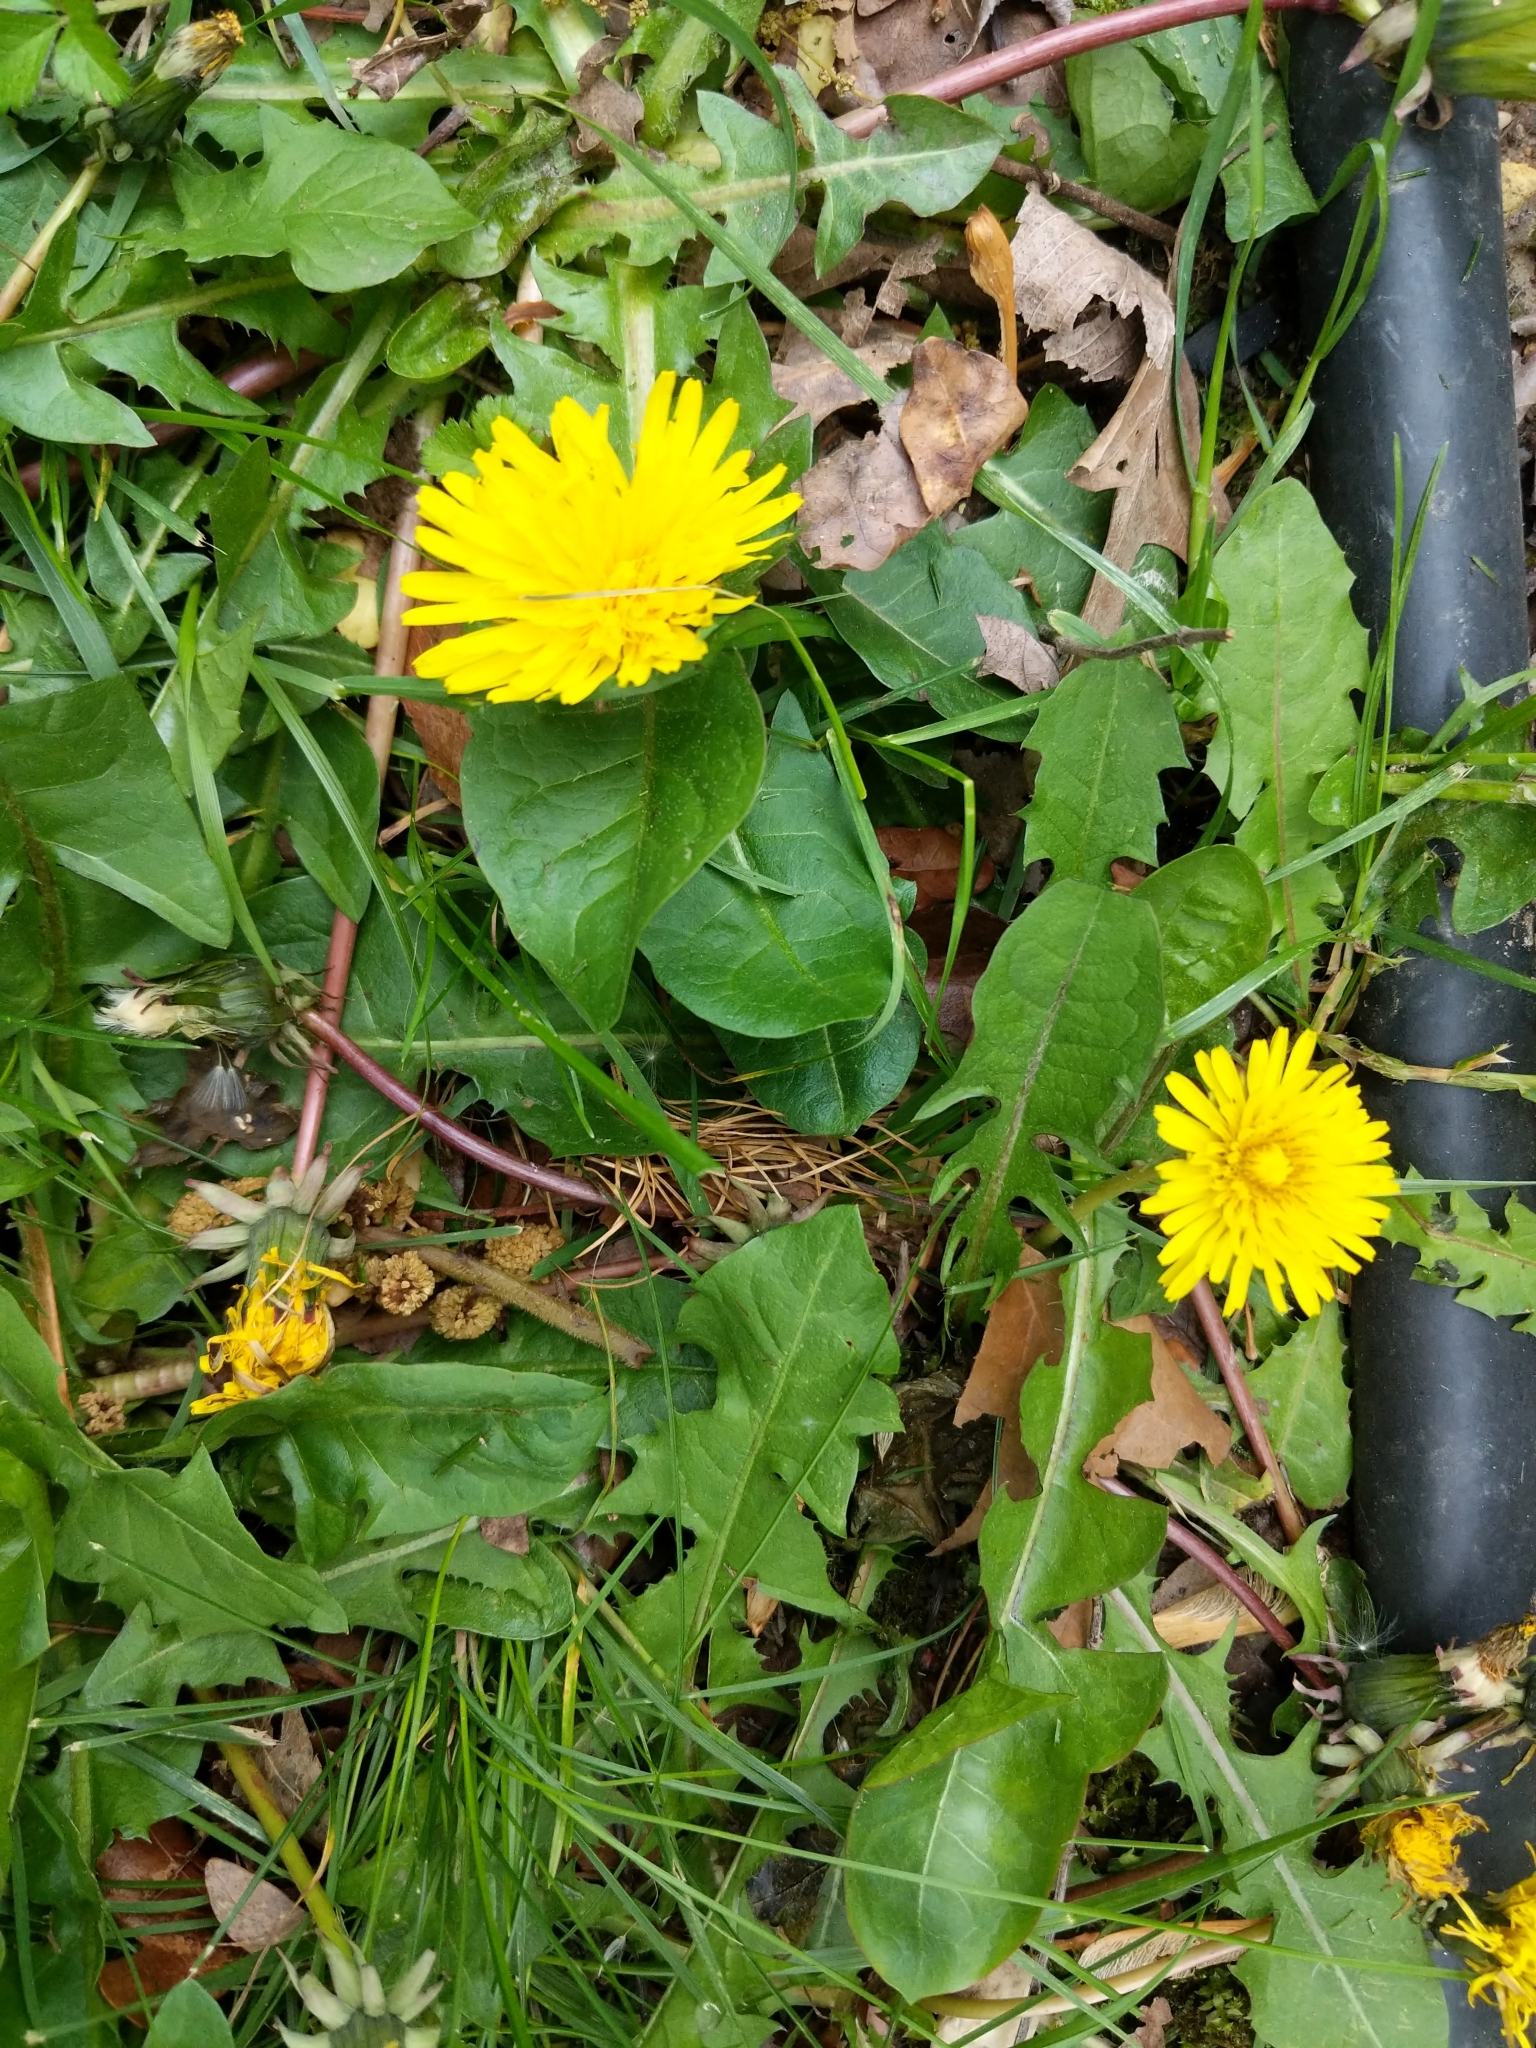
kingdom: Plantae
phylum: Tracheophyta
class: Magnoliopsida
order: Asterales
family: Asteraceae
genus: Taraxacum
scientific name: Taraxacum officinale
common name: Common dandelion
